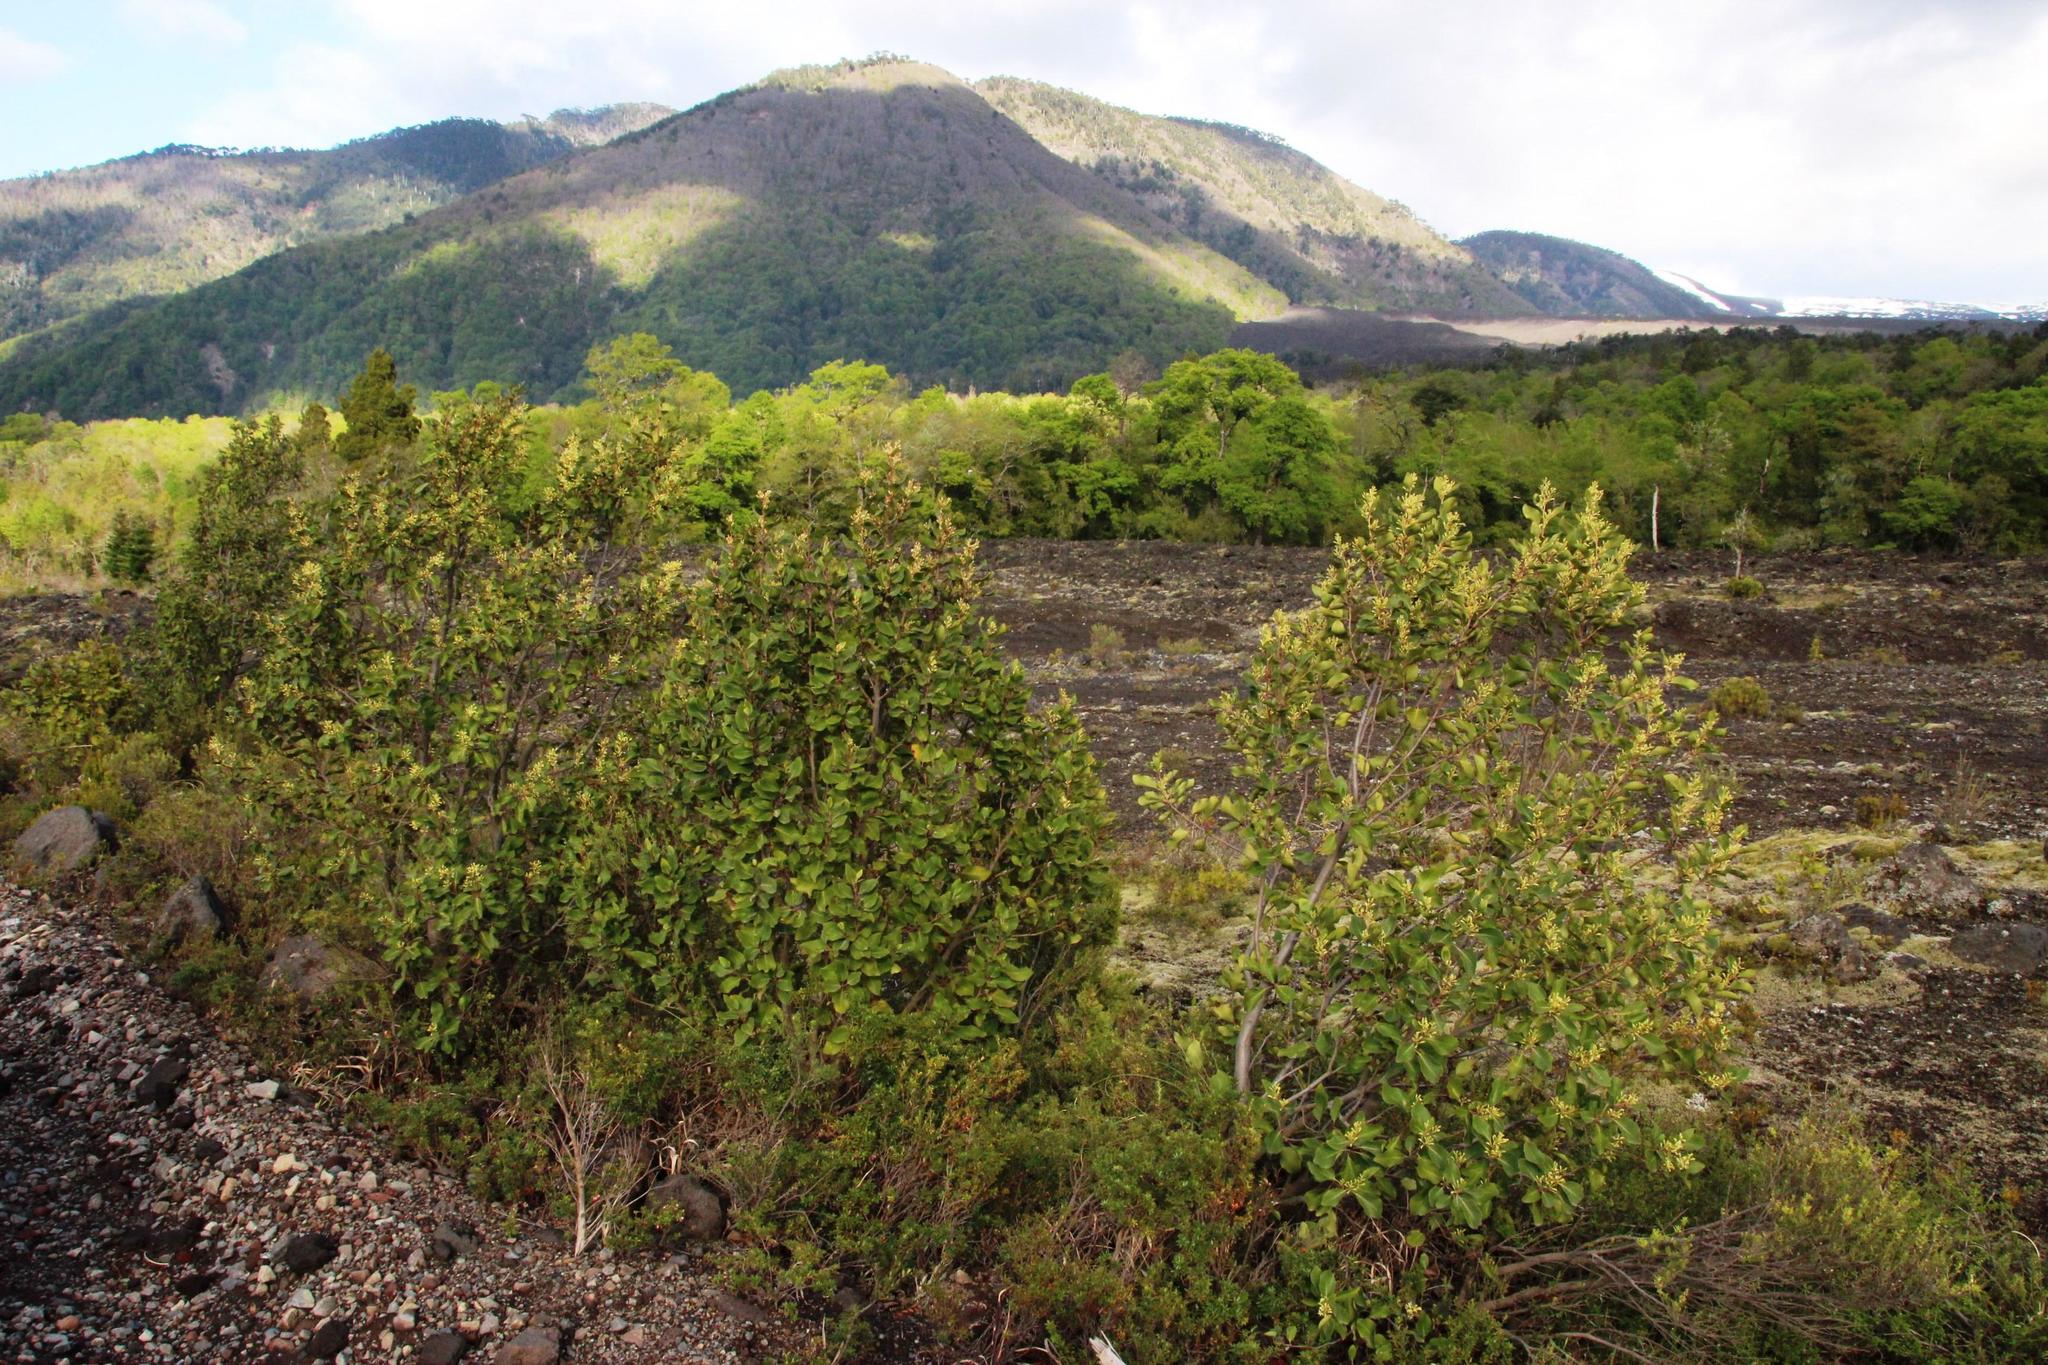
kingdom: Plantae
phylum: Tracheophyta
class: Magnoliopsida
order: Proteales
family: Proteaceae
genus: Lomatia
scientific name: Lomatia hirsuta
